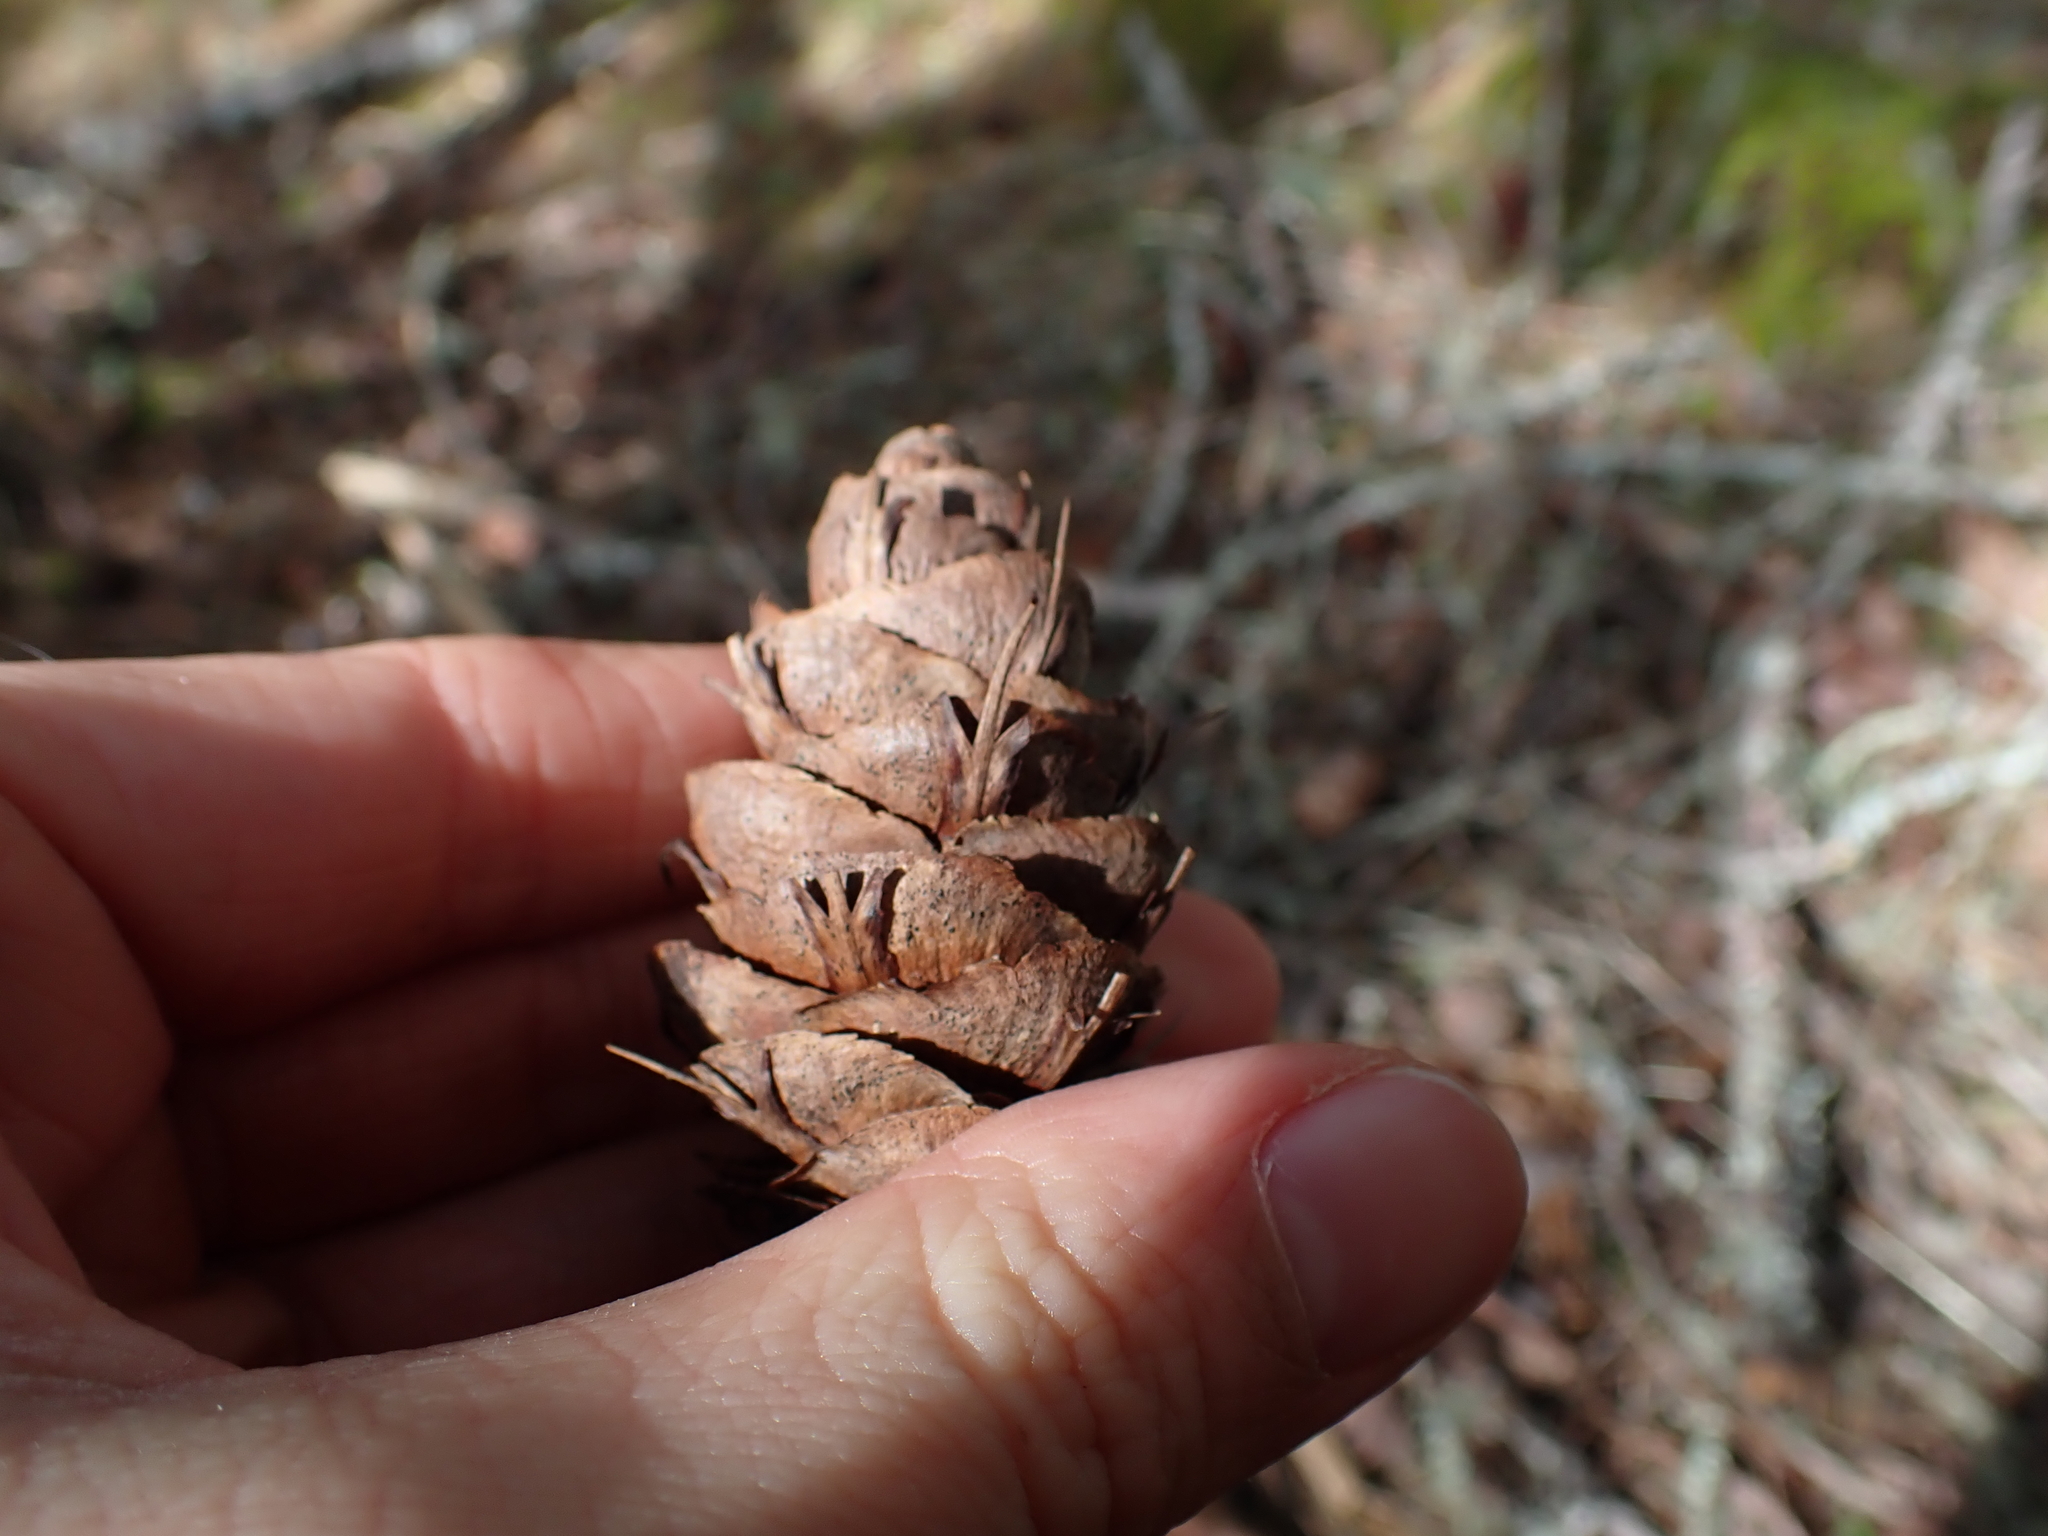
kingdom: Plantae
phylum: Tracheophyta
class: Pinopsida
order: Pinales
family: Pinaceae
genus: Pseudotsuga
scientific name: Pseudotsuga menziesii
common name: Douglas fir
